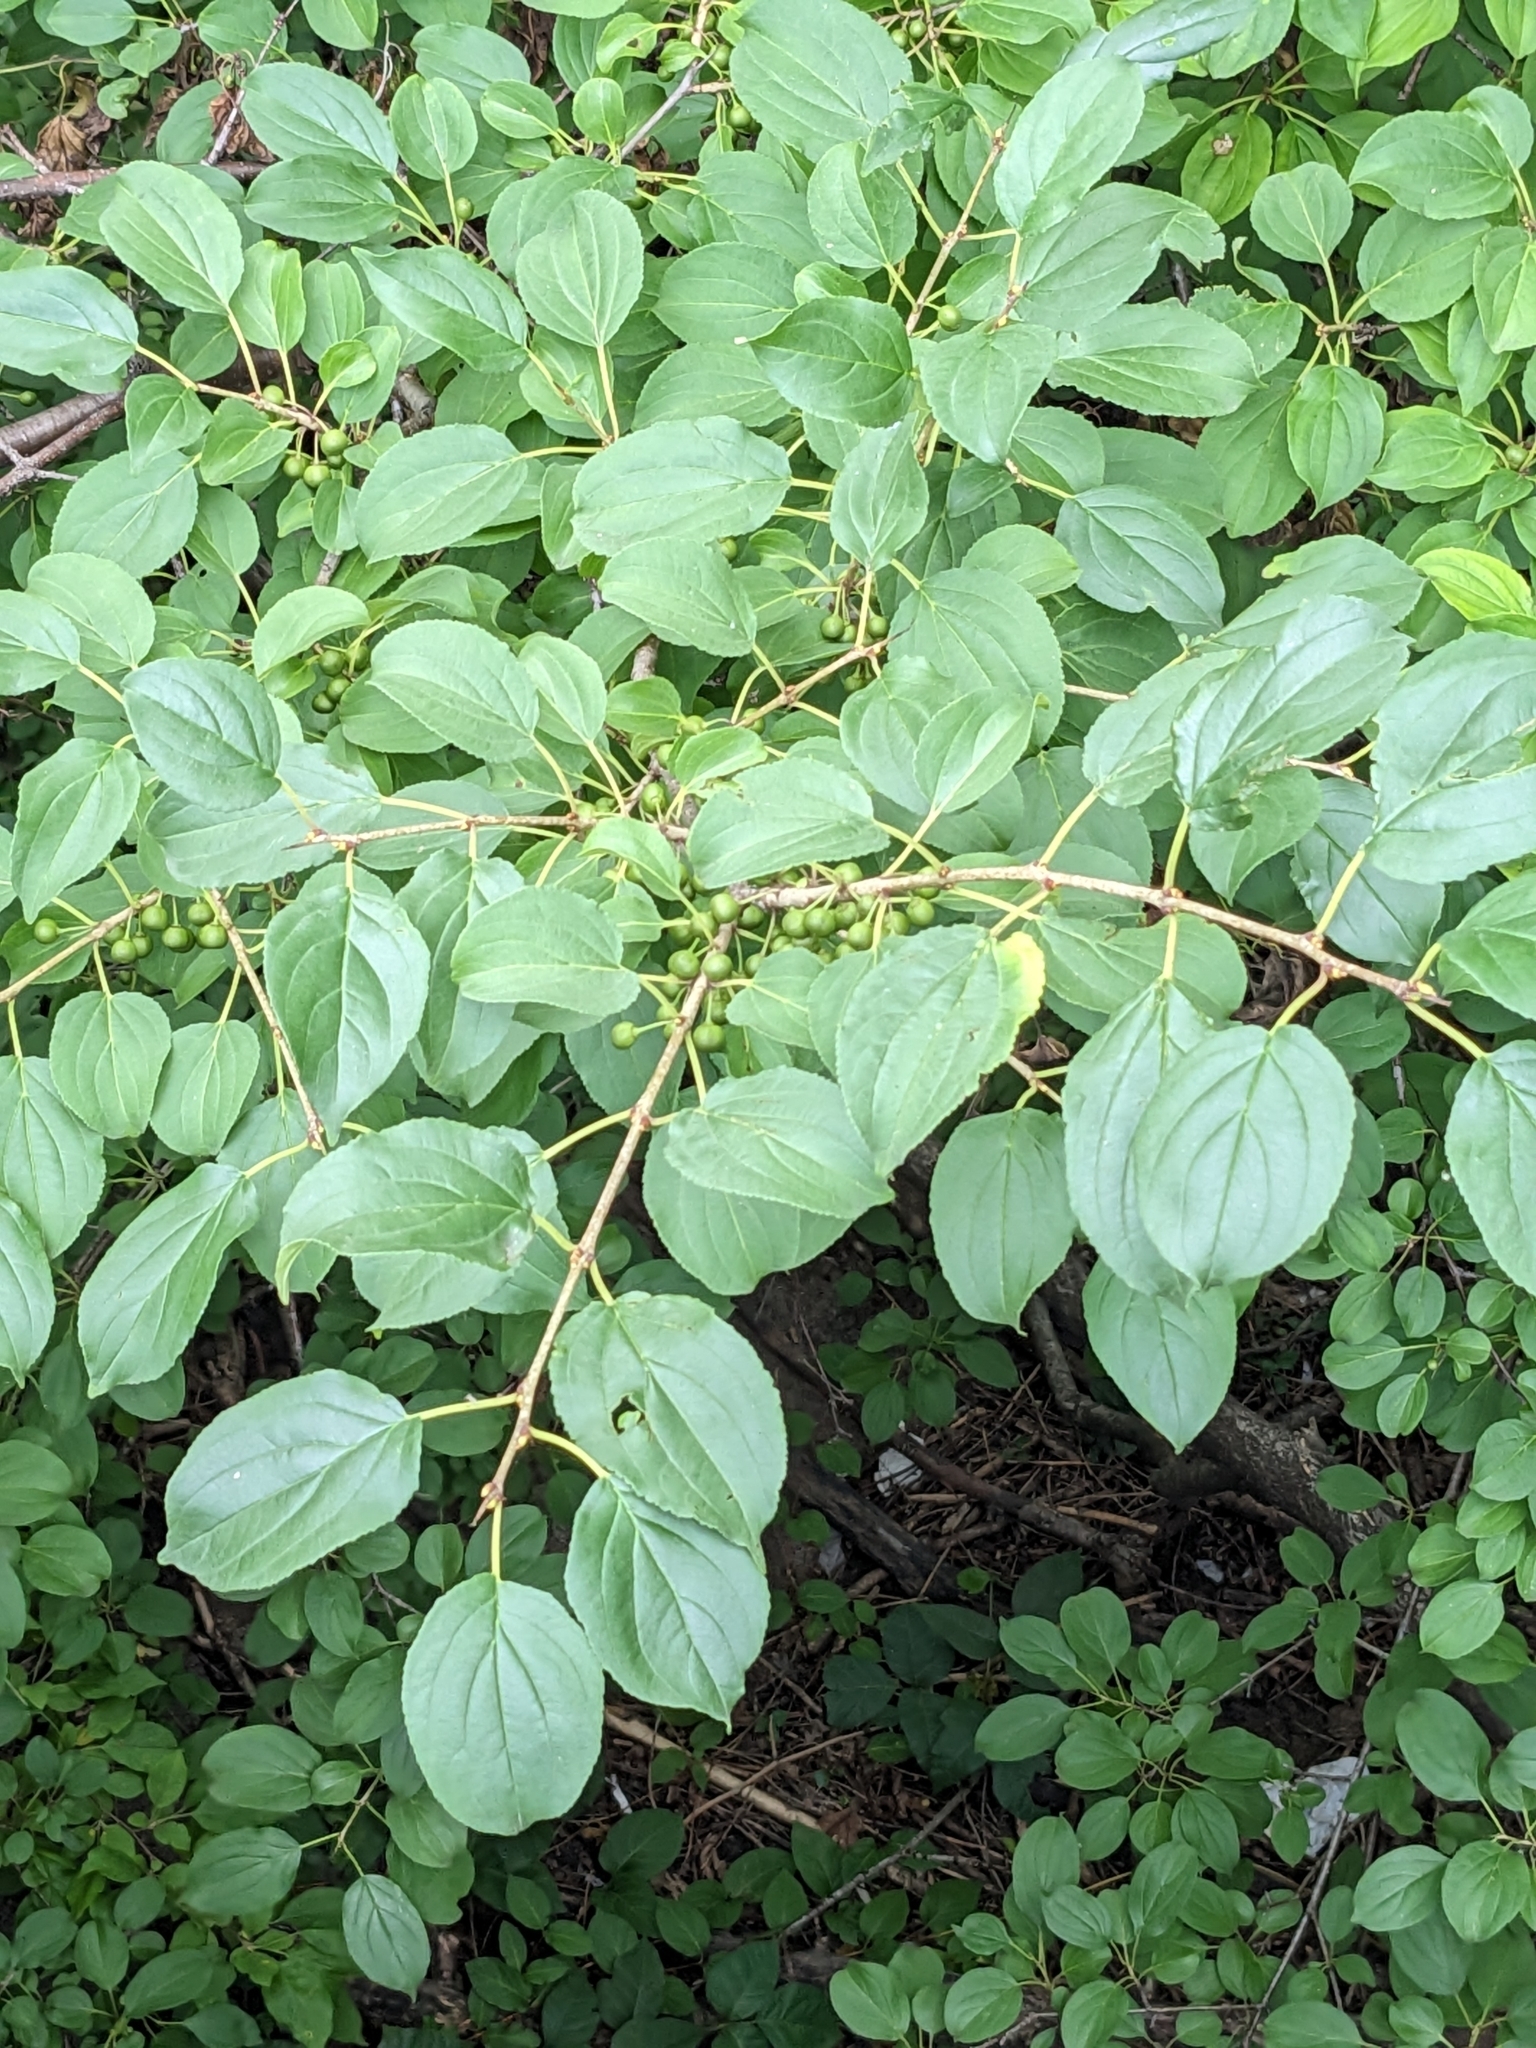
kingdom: Plantae
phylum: Tracheophyta
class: Magnoliopsida
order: Rosales
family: Rhamnaceae
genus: Rhamnus
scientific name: Rhamnus cathartica
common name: Common buckthorn
